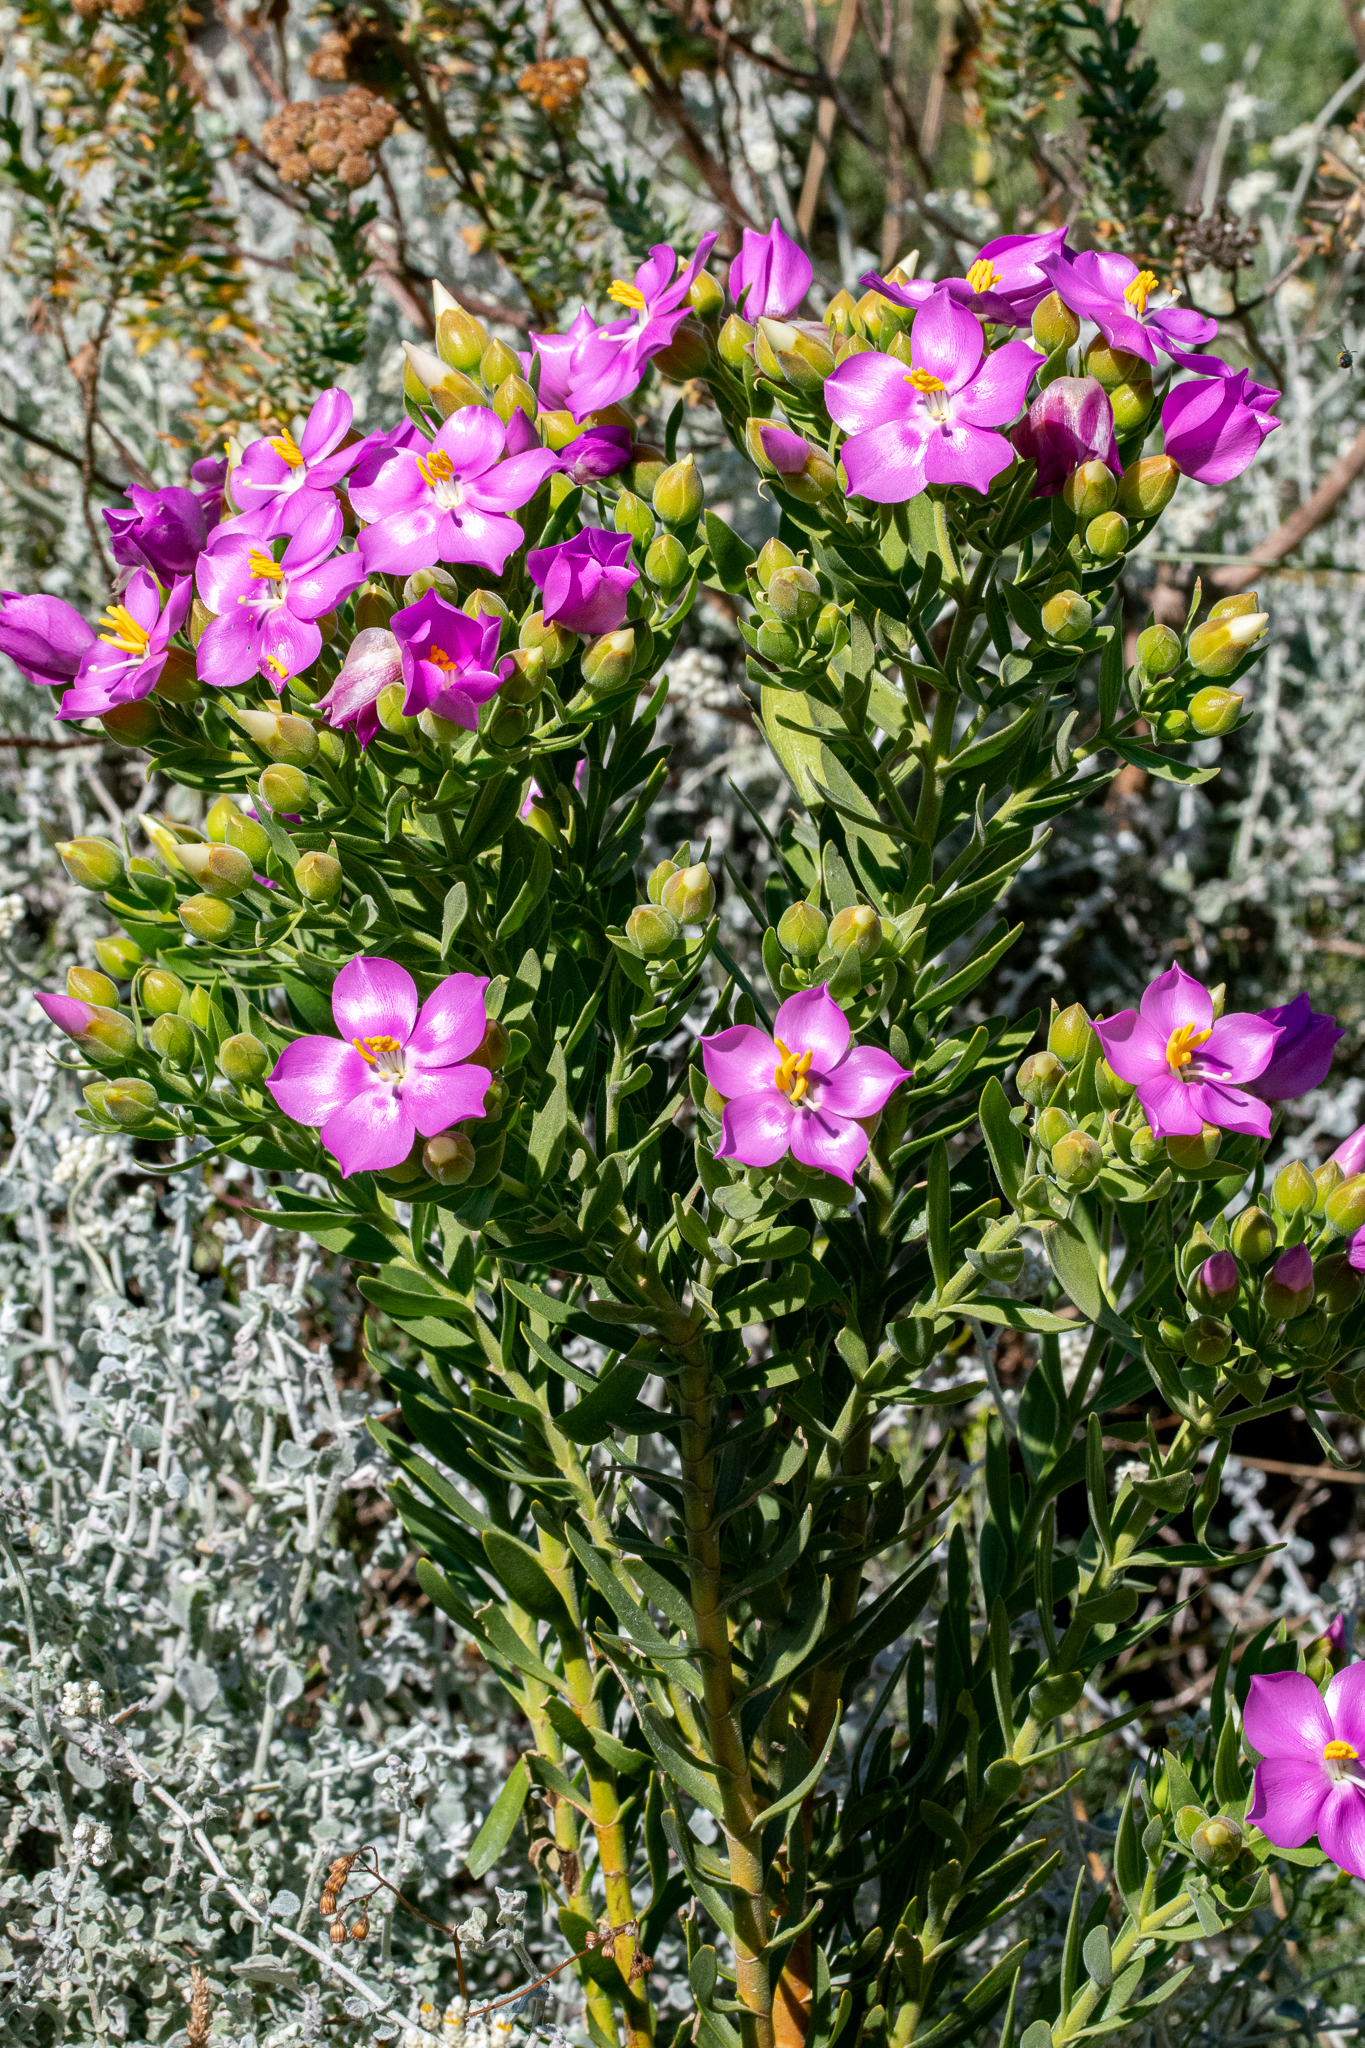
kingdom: Plantae
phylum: Tracheophyta
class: Magnoliopsida
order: Gentianales
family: Gentianaceae
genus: Orphium
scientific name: Orphium frutescens
